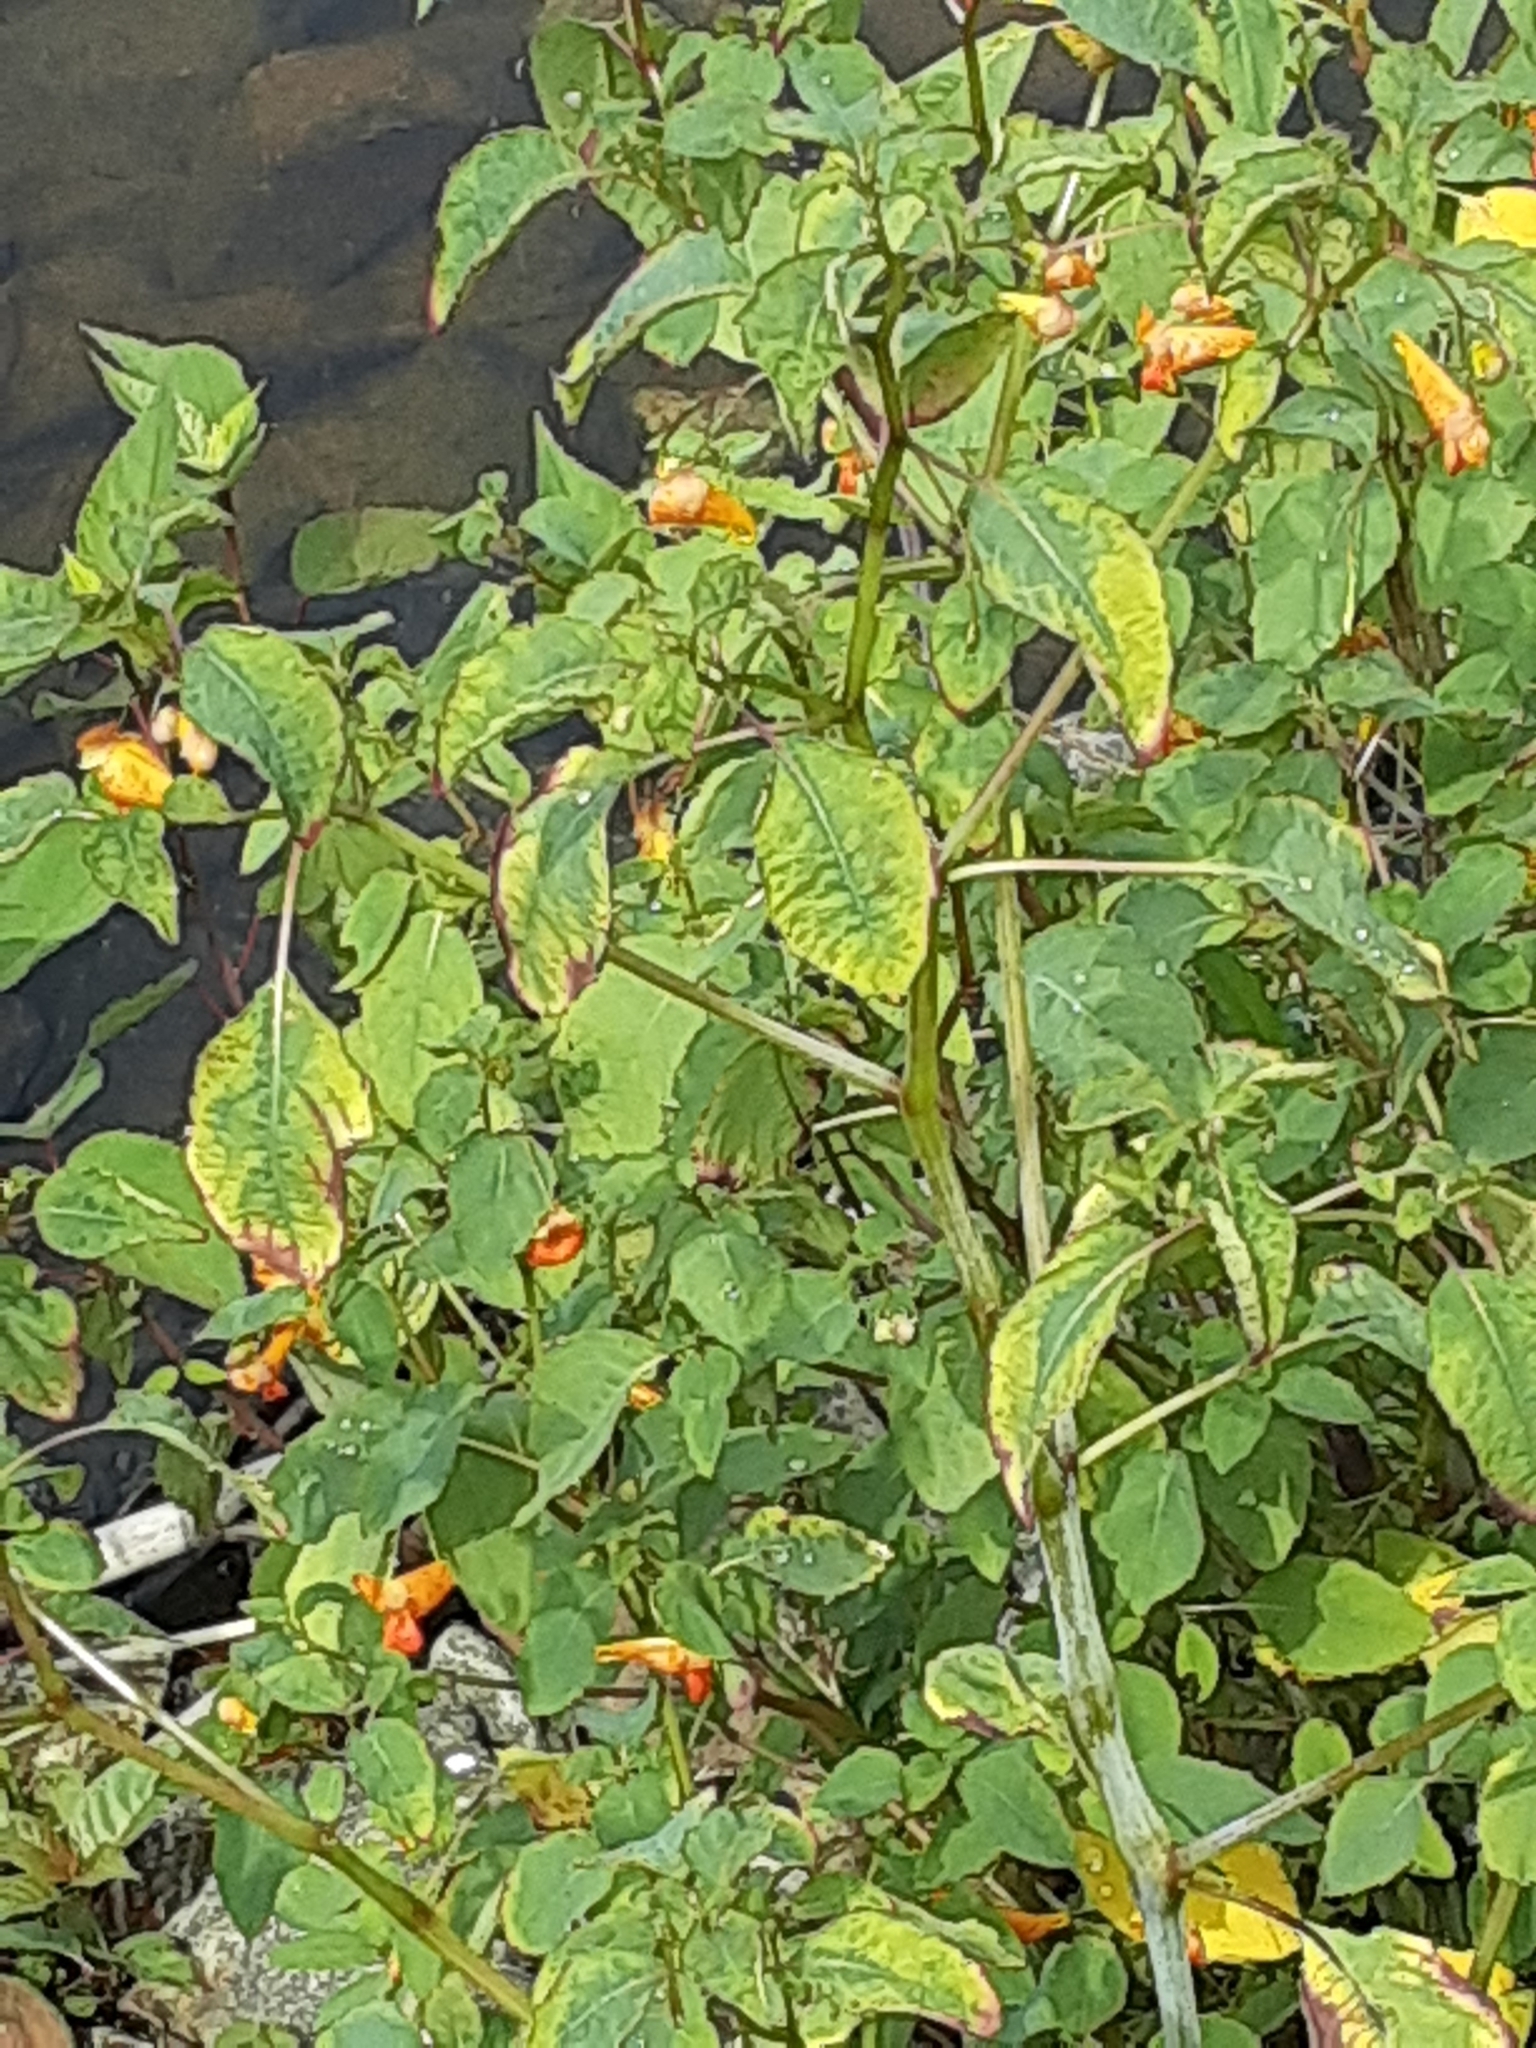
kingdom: Plantae
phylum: Tracheophyta
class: Magnoliopsida
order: Ericales
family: Balsaminaceae
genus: Impatiens
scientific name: Impatiens capensis
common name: Orange balsam
